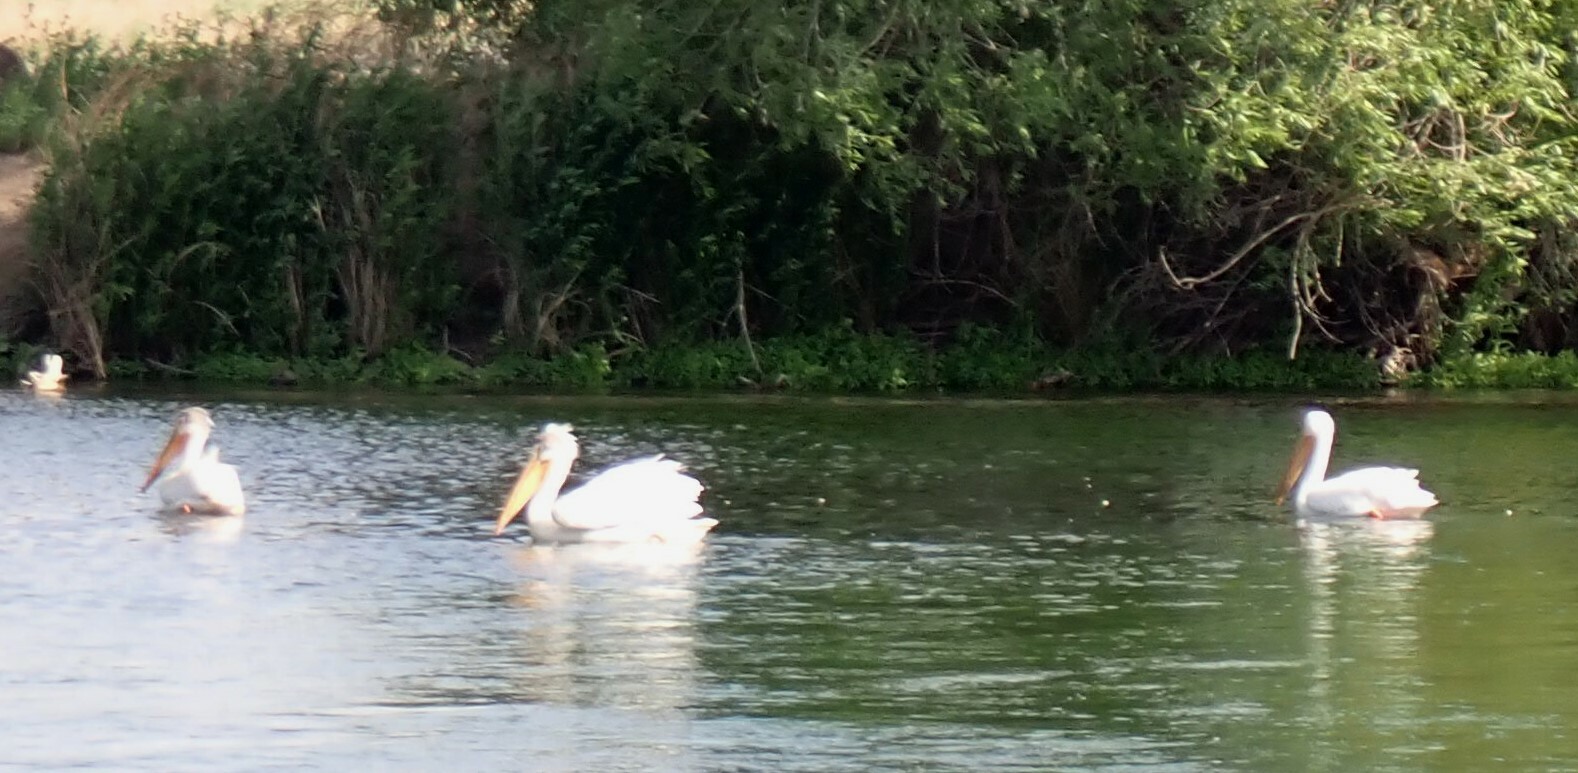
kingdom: Animalia
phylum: Chordata
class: Aves
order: Pelecaniformes
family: Pelecanidae
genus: Pelecanus
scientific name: Pelecanus erythrorhynchos
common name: American white pelican
